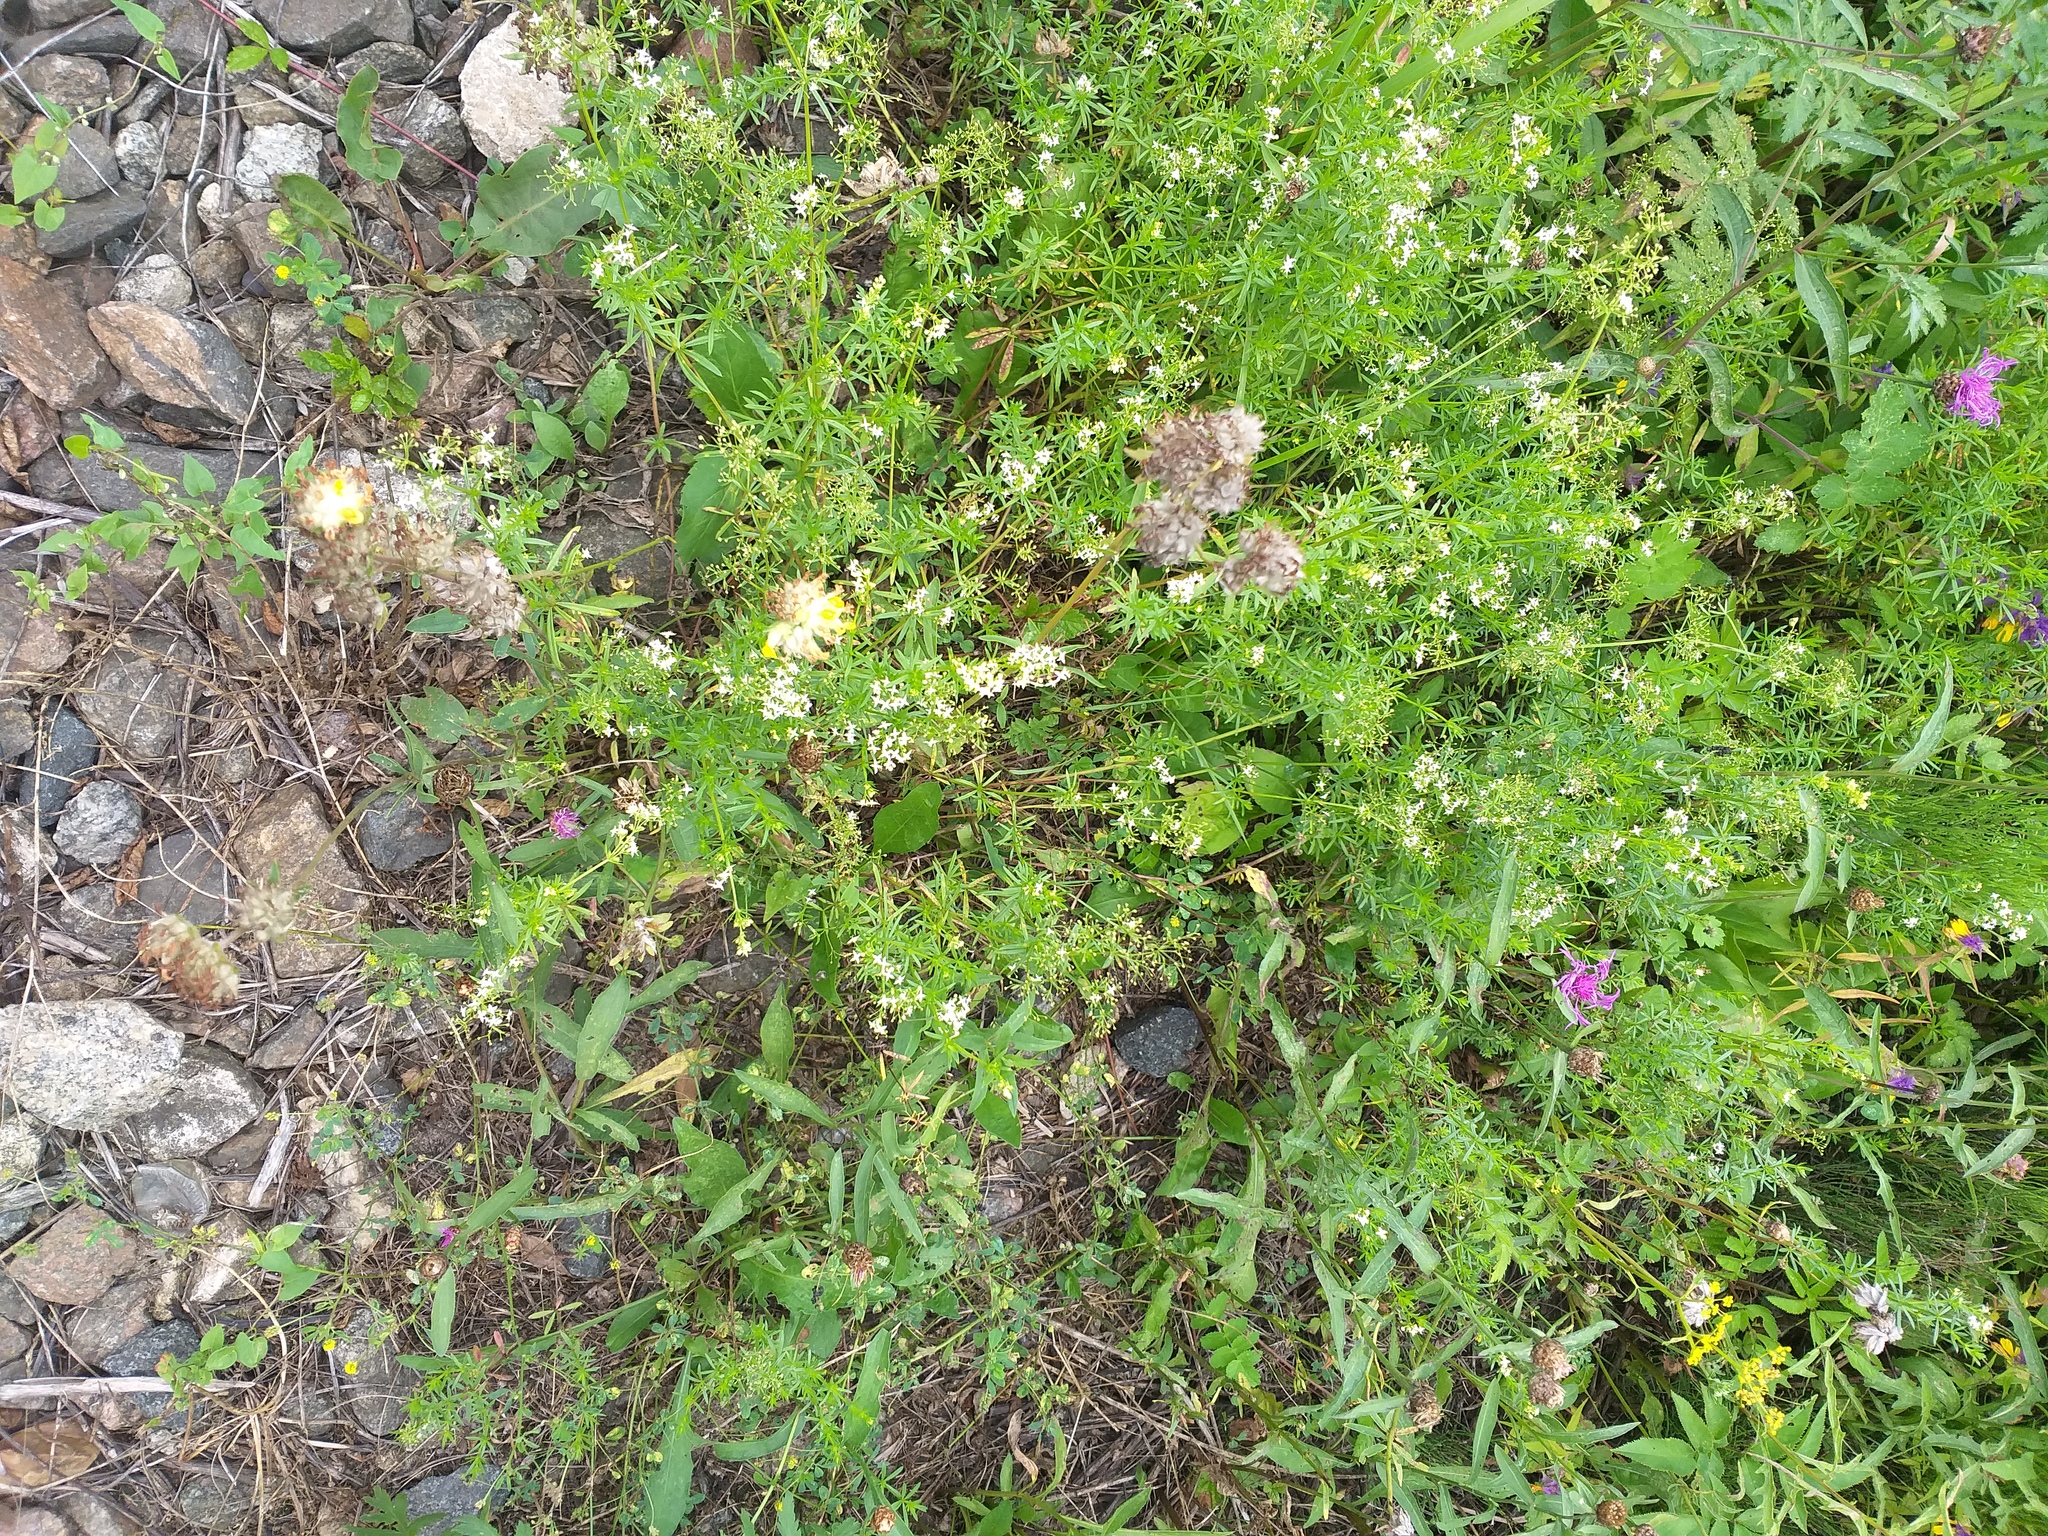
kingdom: Plantae
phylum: Tracheophyta
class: Magnoliopsida
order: Fabales
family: Fabaceae
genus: Anthyllis
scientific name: Anthyllis vulneraria
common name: Kidney vetch
